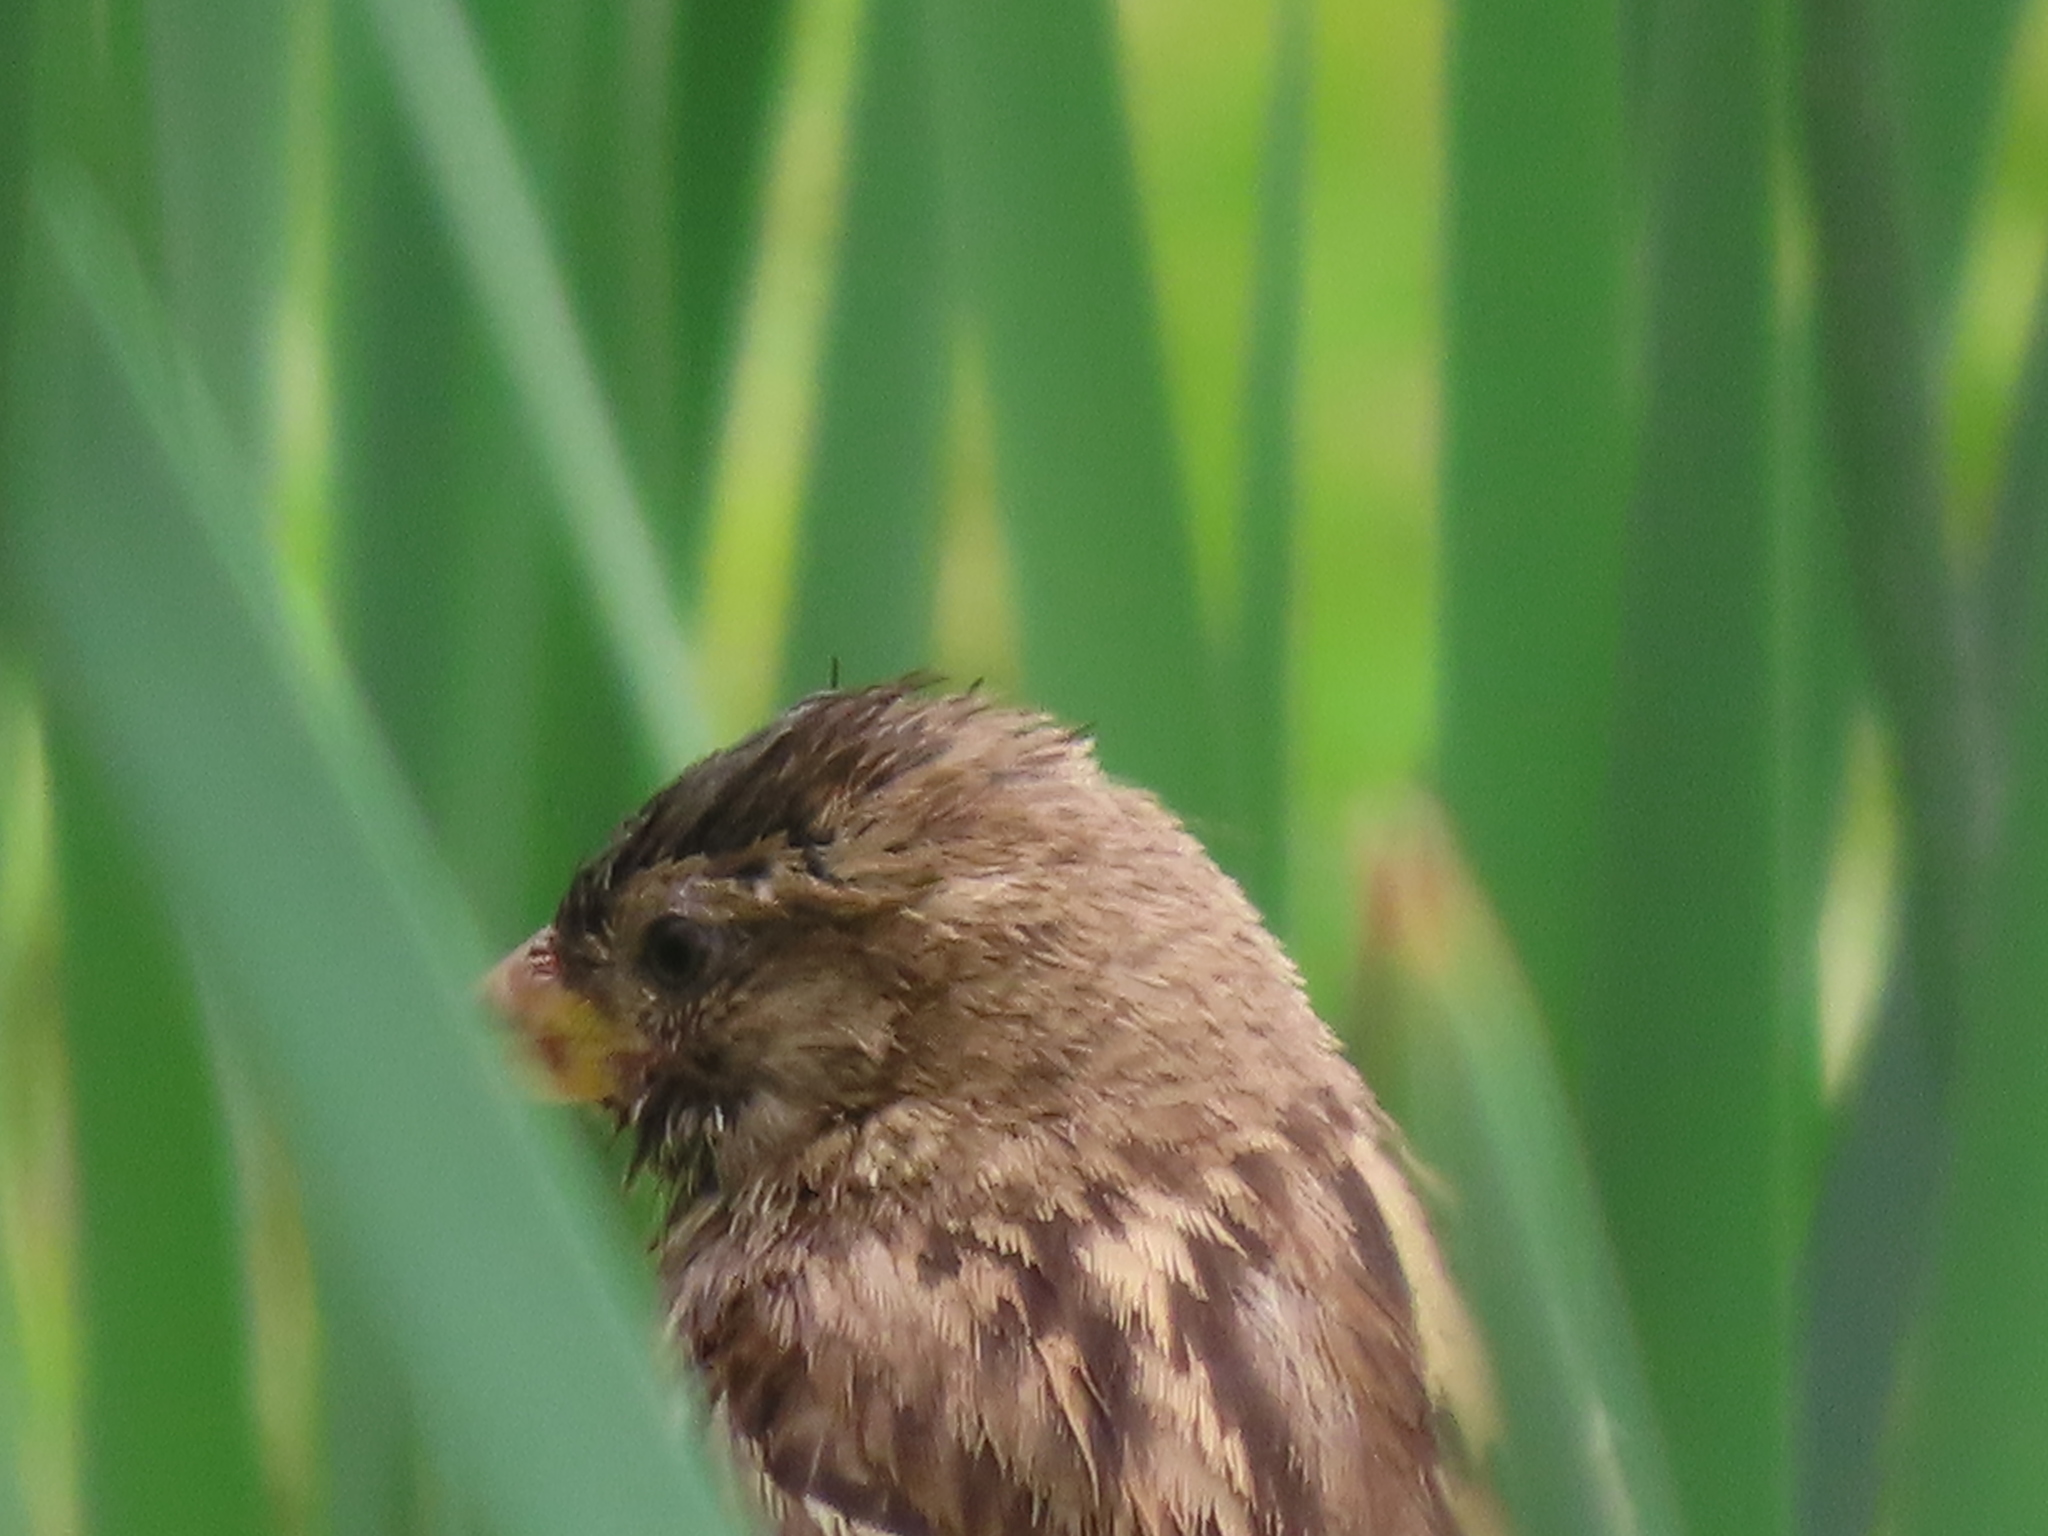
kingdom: Animalia
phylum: Chordata
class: Aves
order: Passeriformes
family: Passeridae
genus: Passer
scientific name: Passer domesticus
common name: House sparrow
